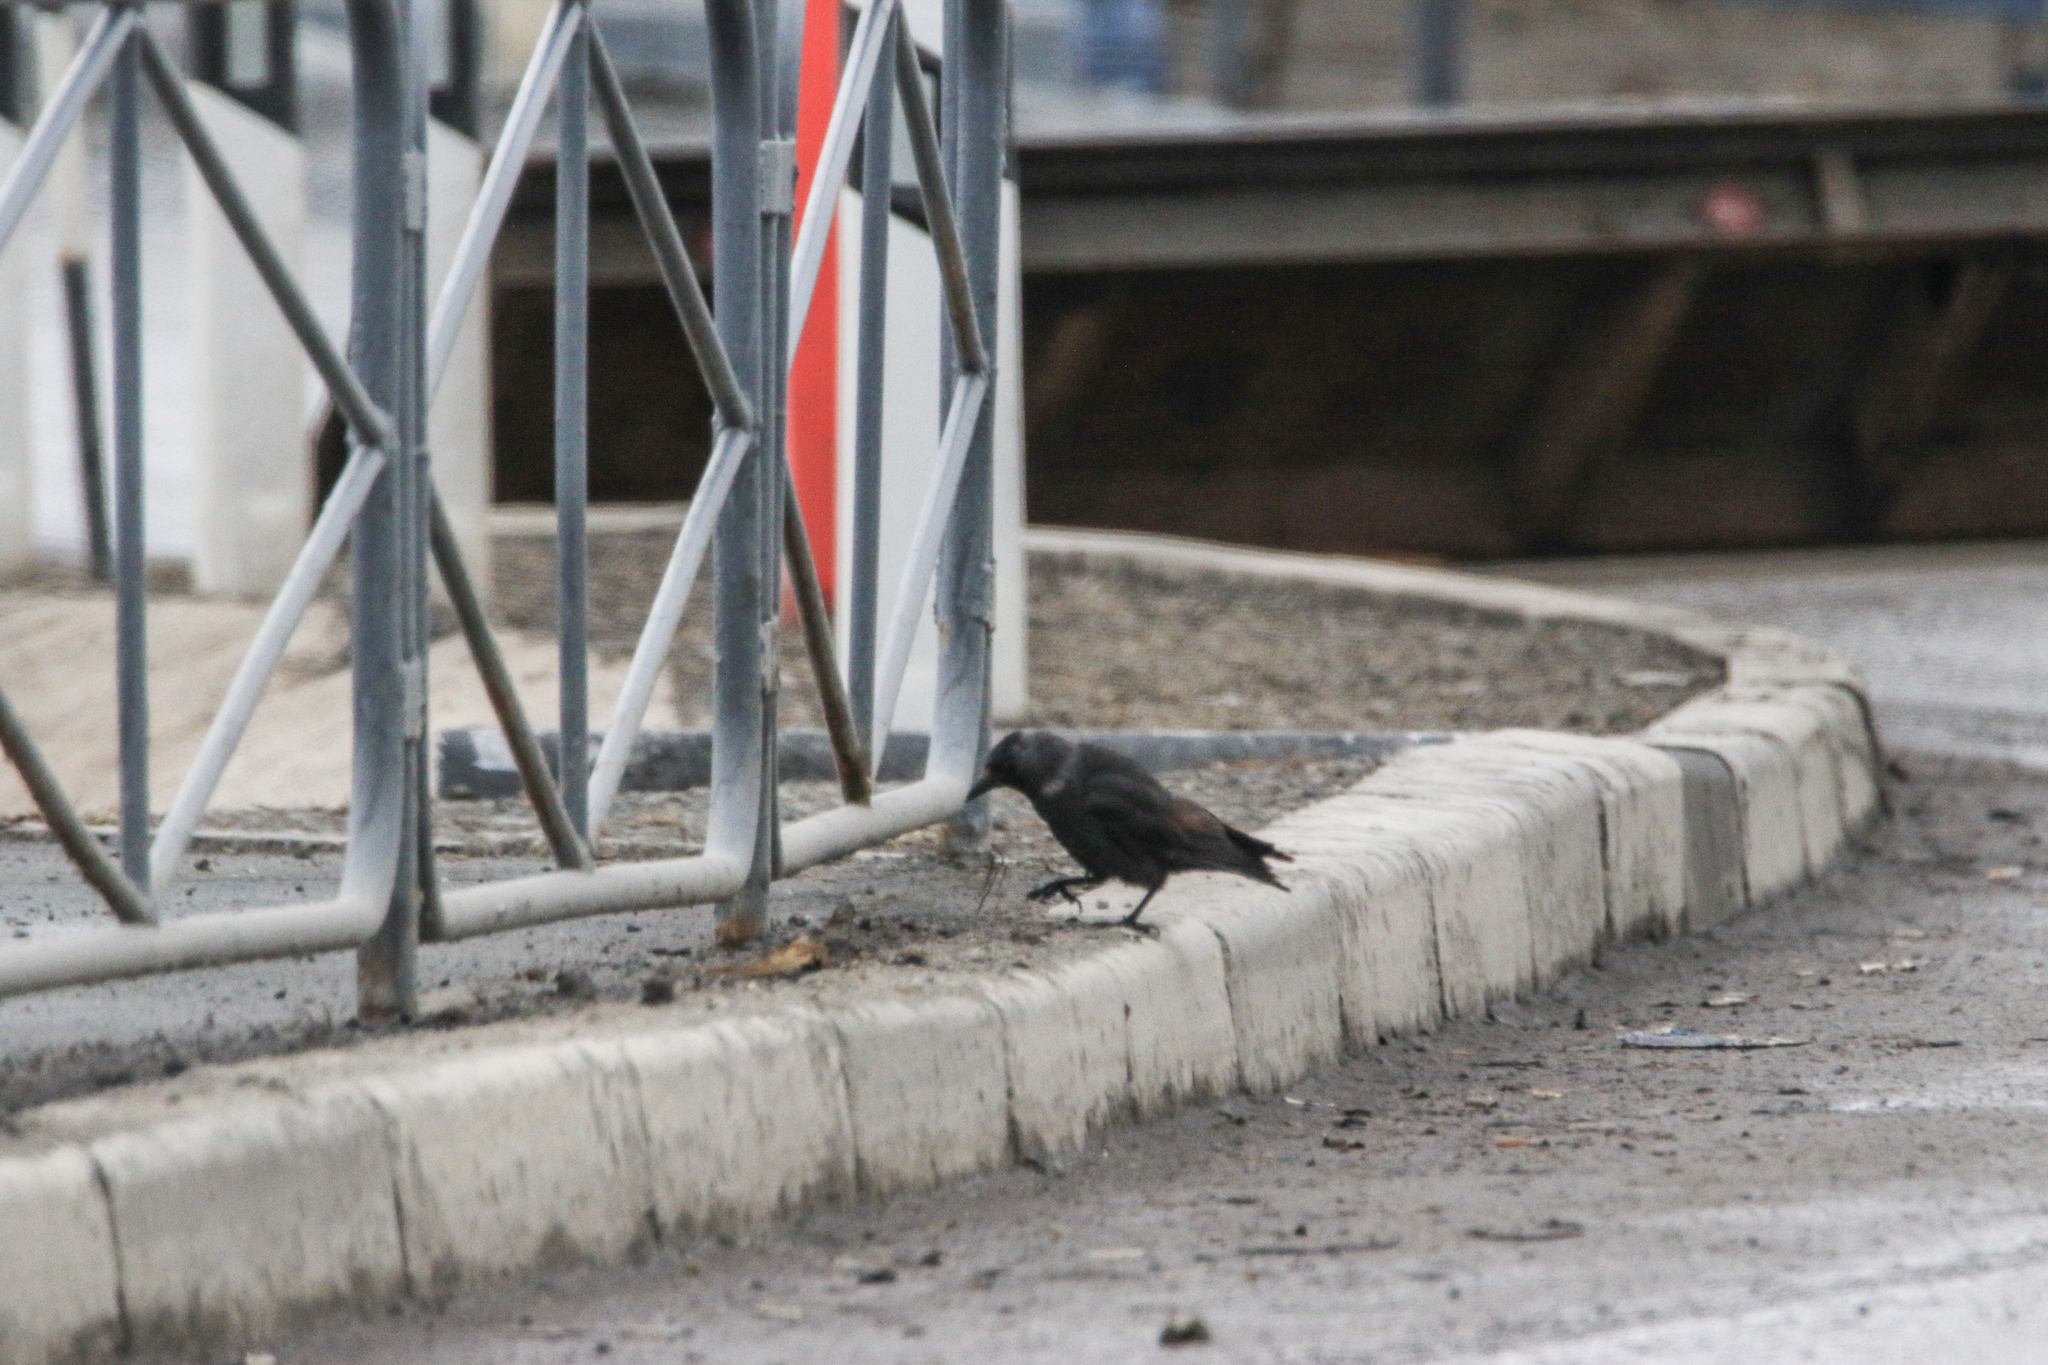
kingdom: Animalia
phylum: Chordata
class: Aves
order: Passeriformes
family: Corvidae
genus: Coloeus
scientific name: Coloeus monedula
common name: Western jackdaw
